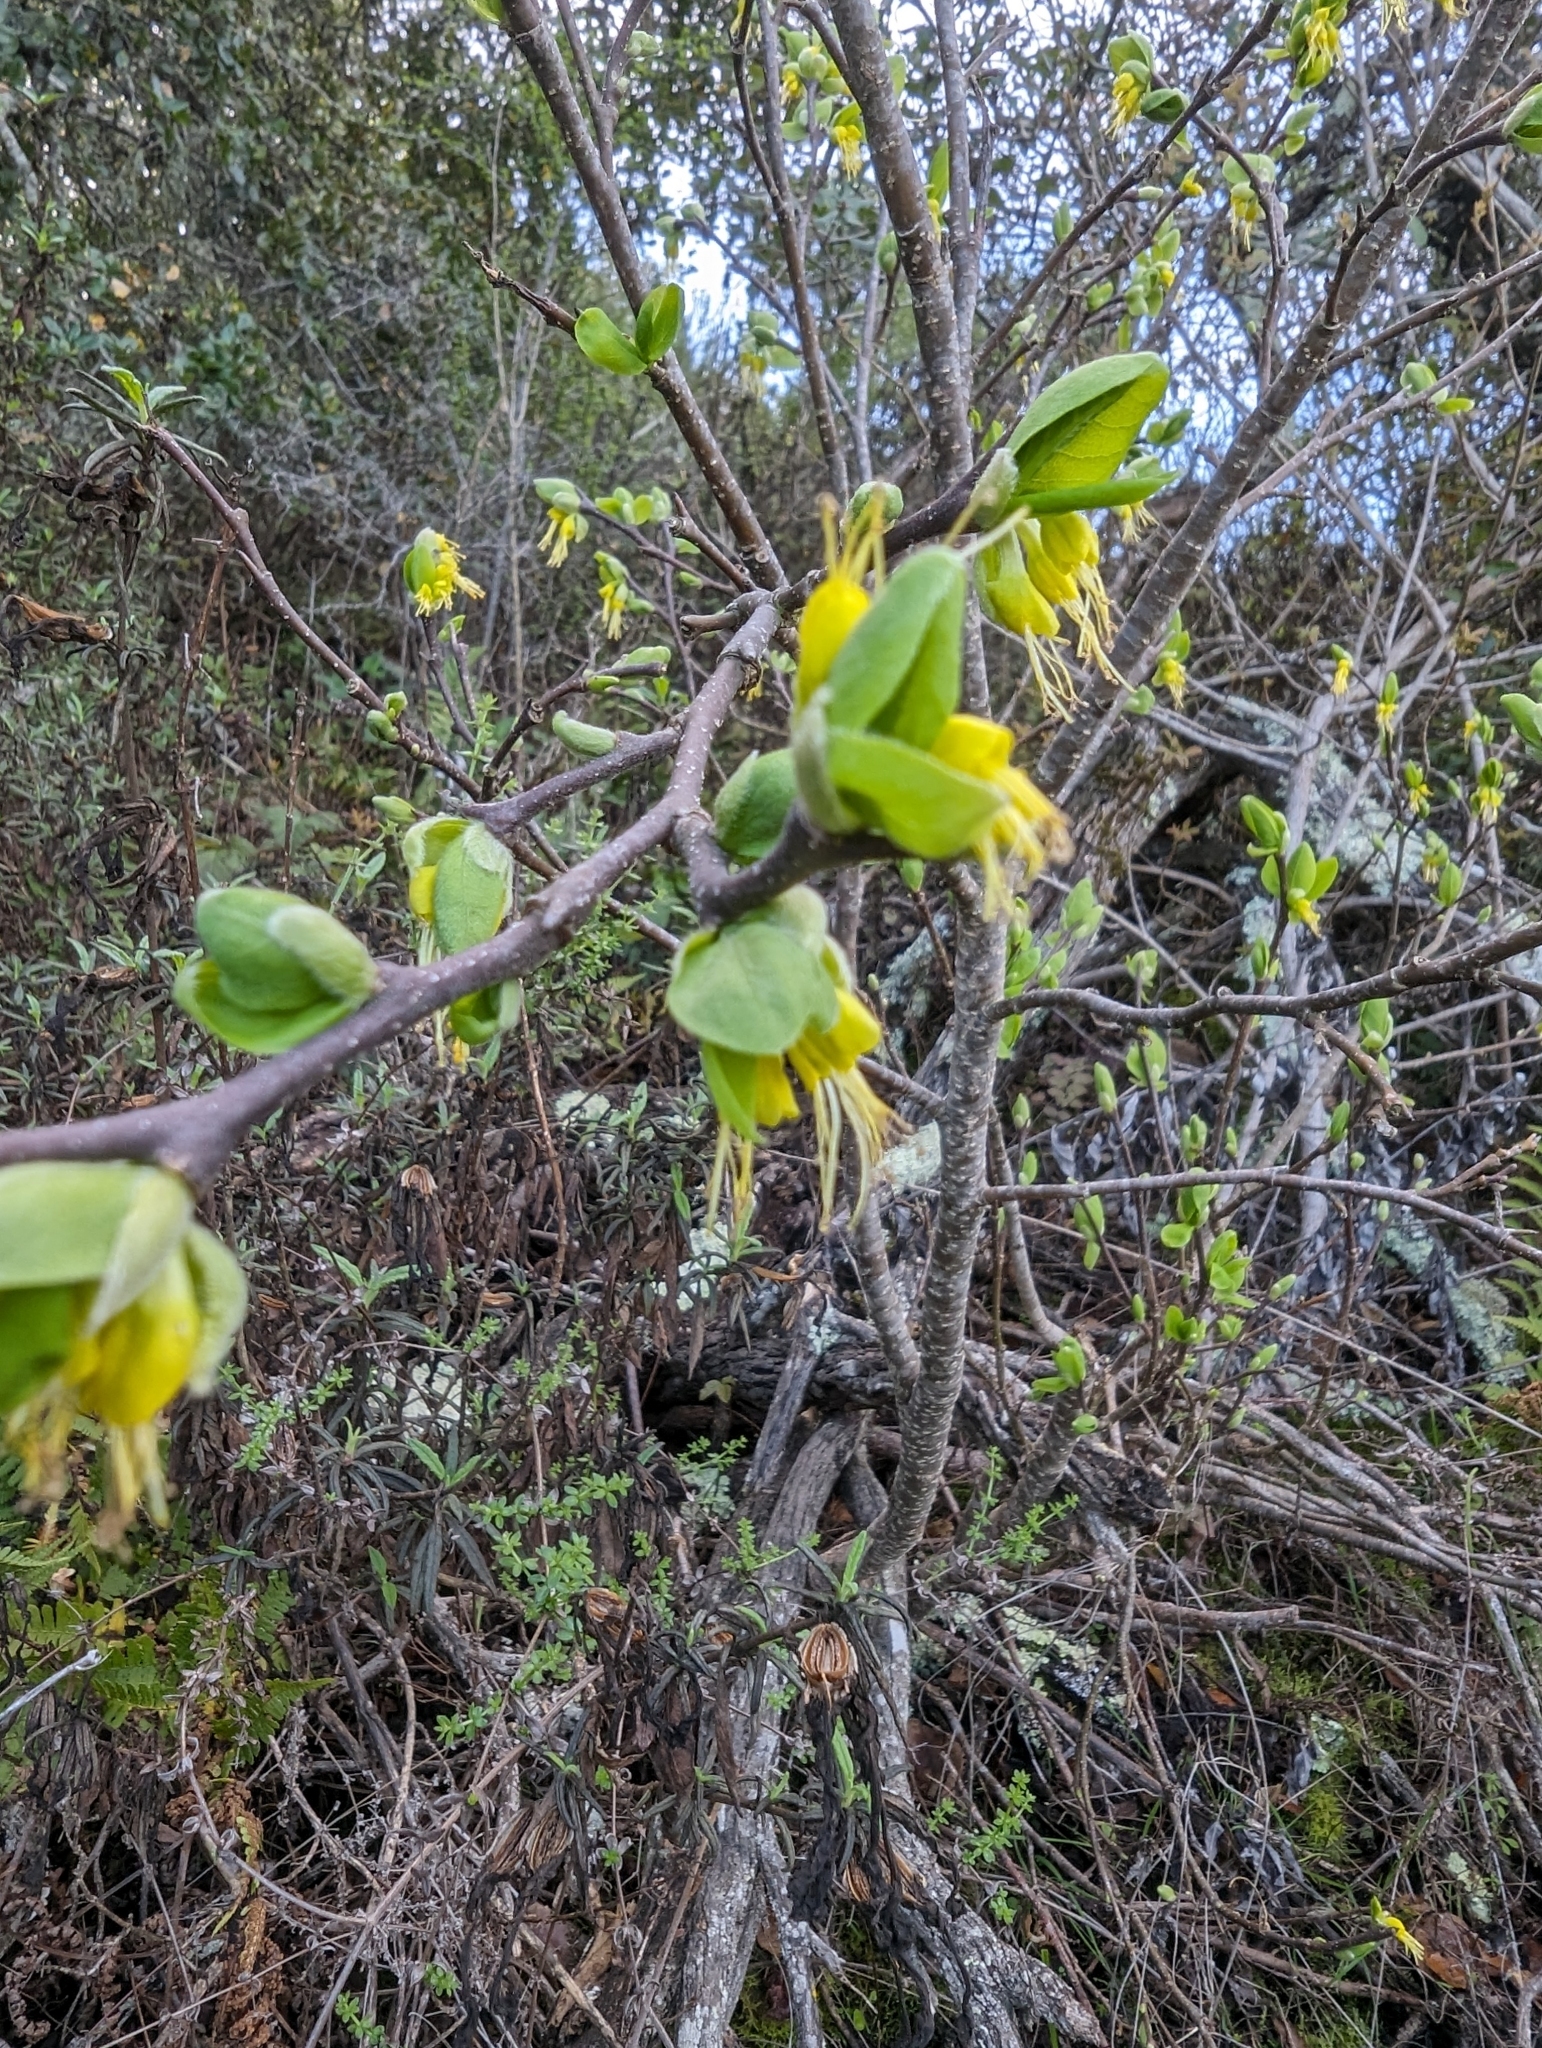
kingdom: Plantae
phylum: Tracheophyta
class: Magnoliopsida
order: Malvales
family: Thymelaeaceae
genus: Dirca
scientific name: Dirca occidentalis
